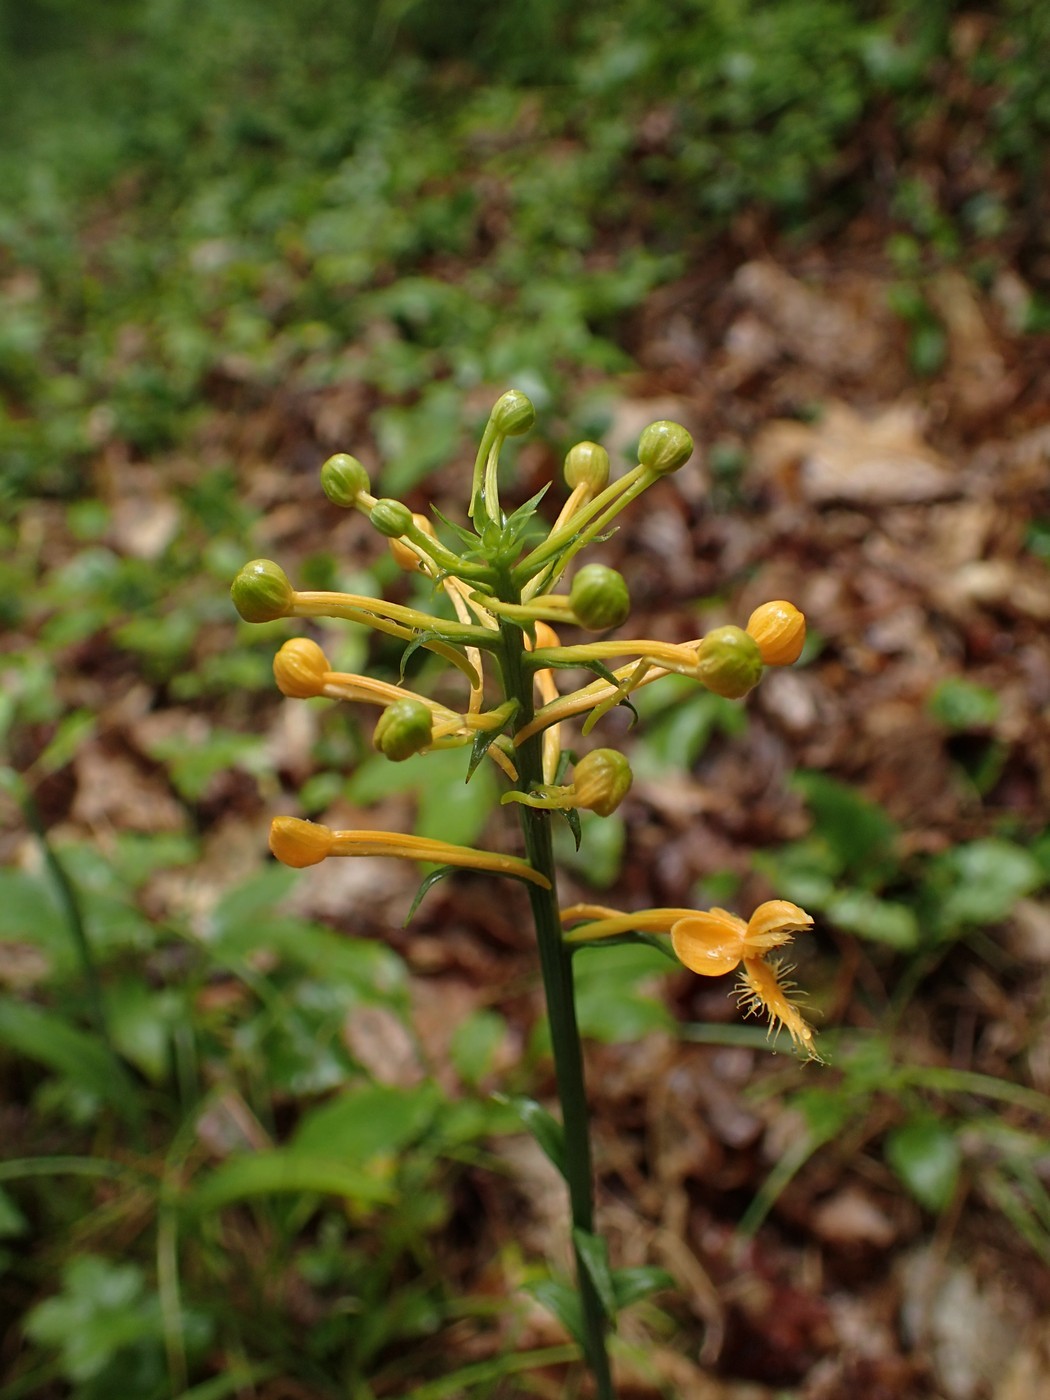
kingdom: Plantae
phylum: Tracheophyta
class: Liliopsida
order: Asparagales
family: Orchidaceae
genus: Platanthera
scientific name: Platanthera ciliaris
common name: Yellow fringed orchid
